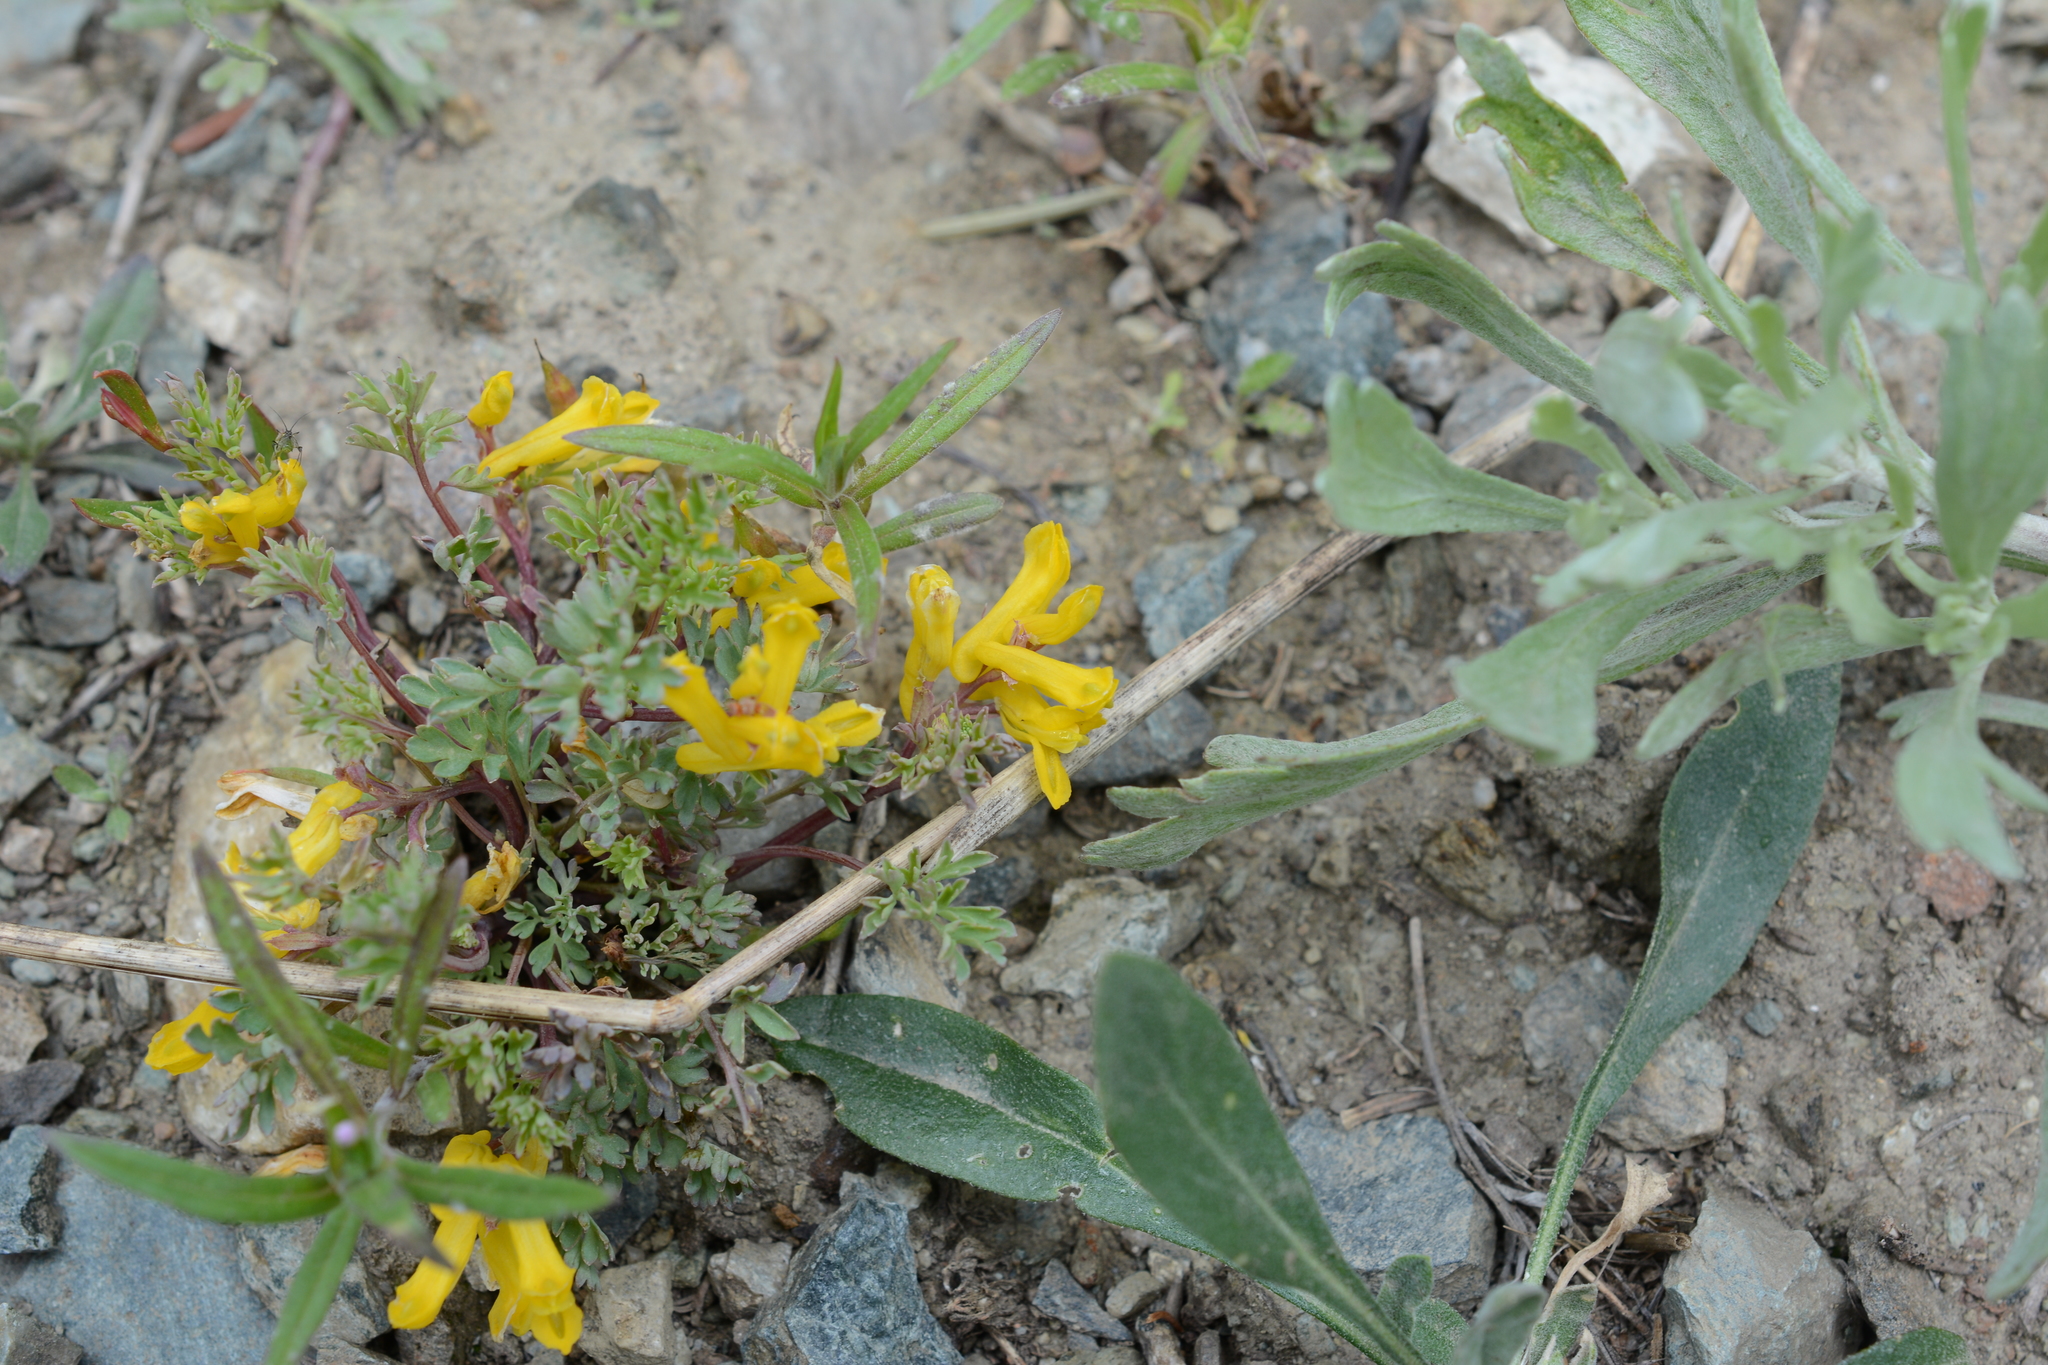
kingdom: Plantae
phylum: Tracheophyta
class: Magnoliopsida
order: Ranunculales
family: Papaveraceae
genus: Corydalis
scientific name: Corydalis aurea
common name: Golden corydalis
